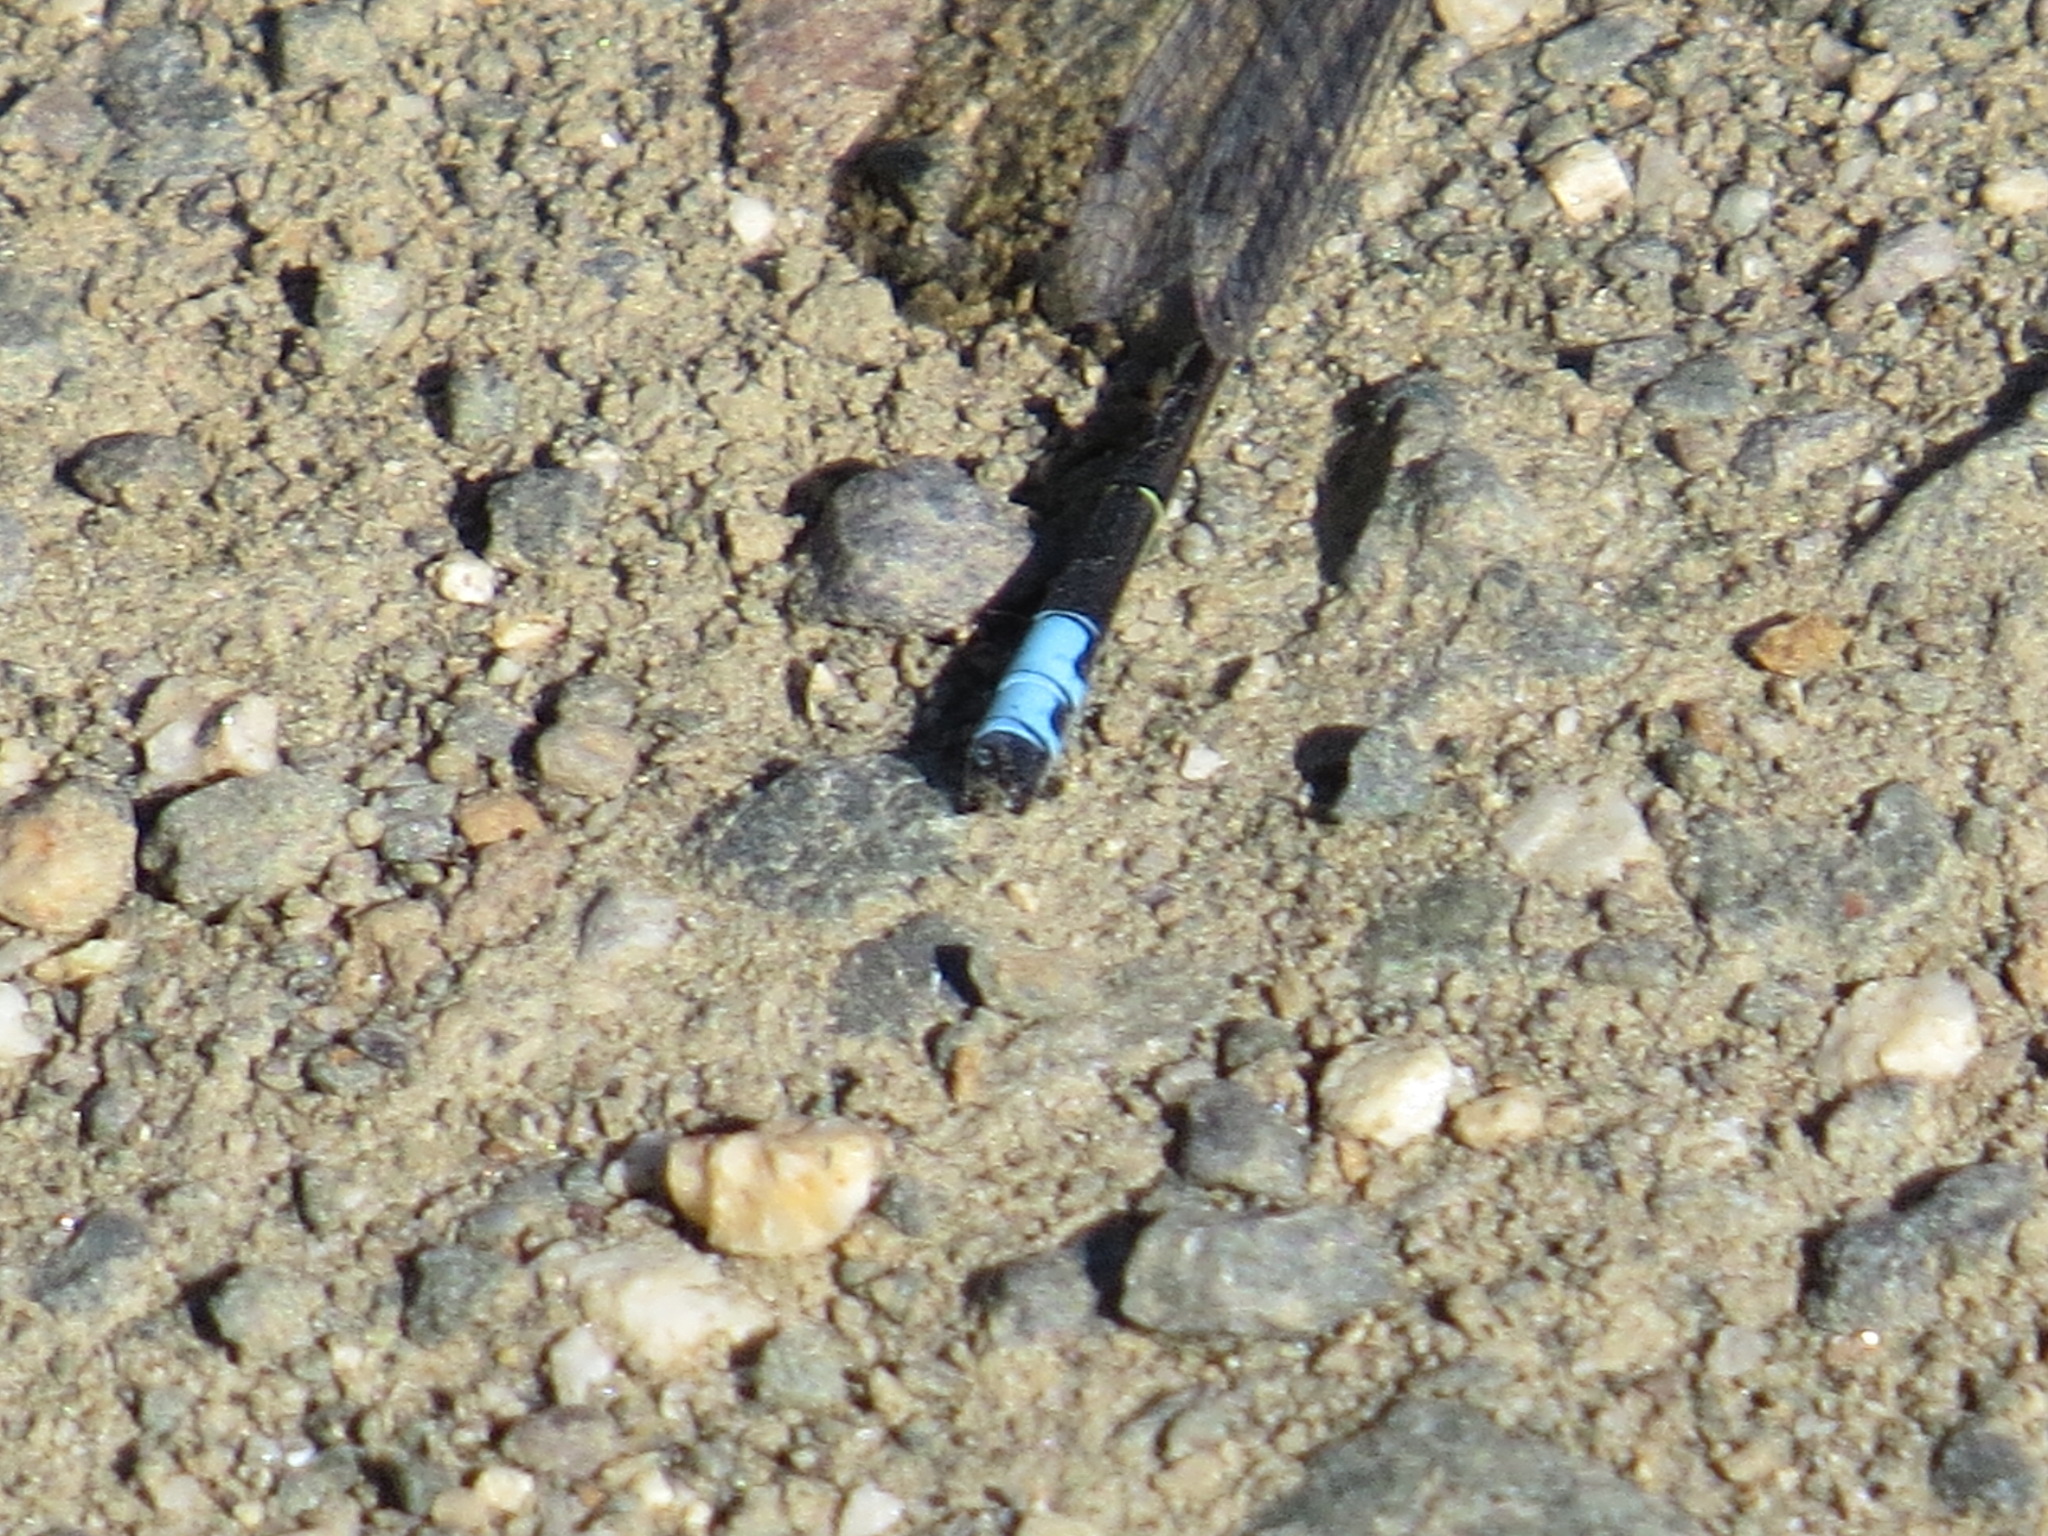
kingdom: Animalia
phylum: Arthropoda
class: Insecta
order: Odonata
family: Coenagrionidae
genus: Ischnura
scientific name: Ischnura cervula
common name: Pacific forktail
